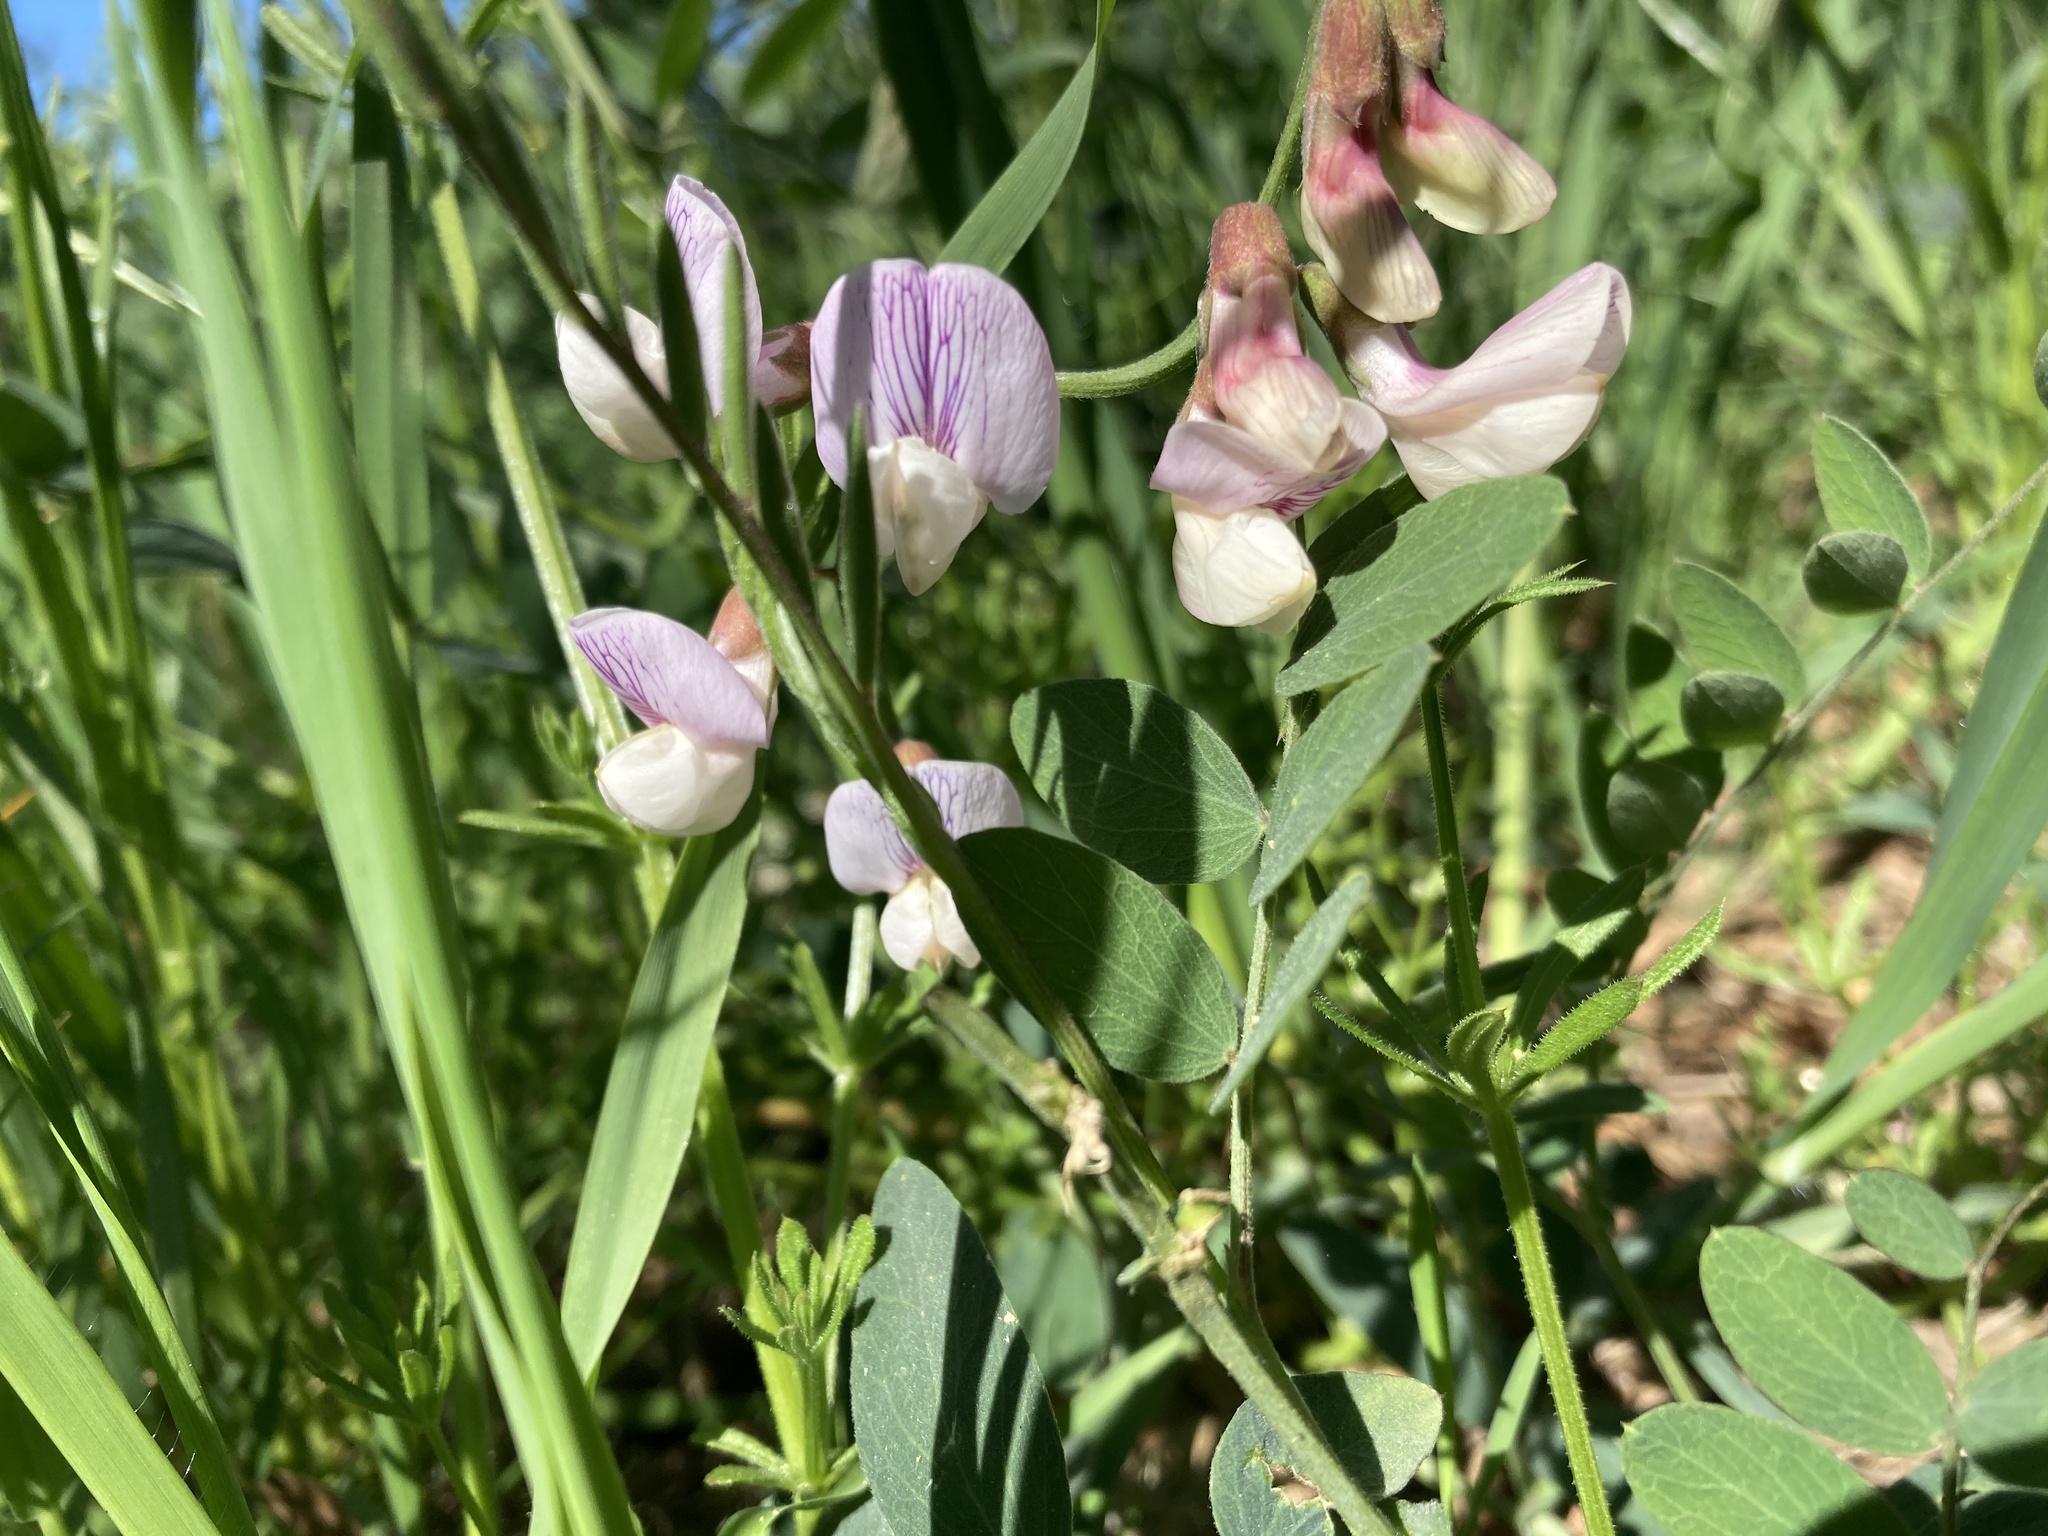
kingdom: Plantae
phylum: Tracheophyta
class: Magnoliopsida
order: Fabales
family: Fabaceae
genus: Lathyrus
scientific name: Lathyrus vestitus
